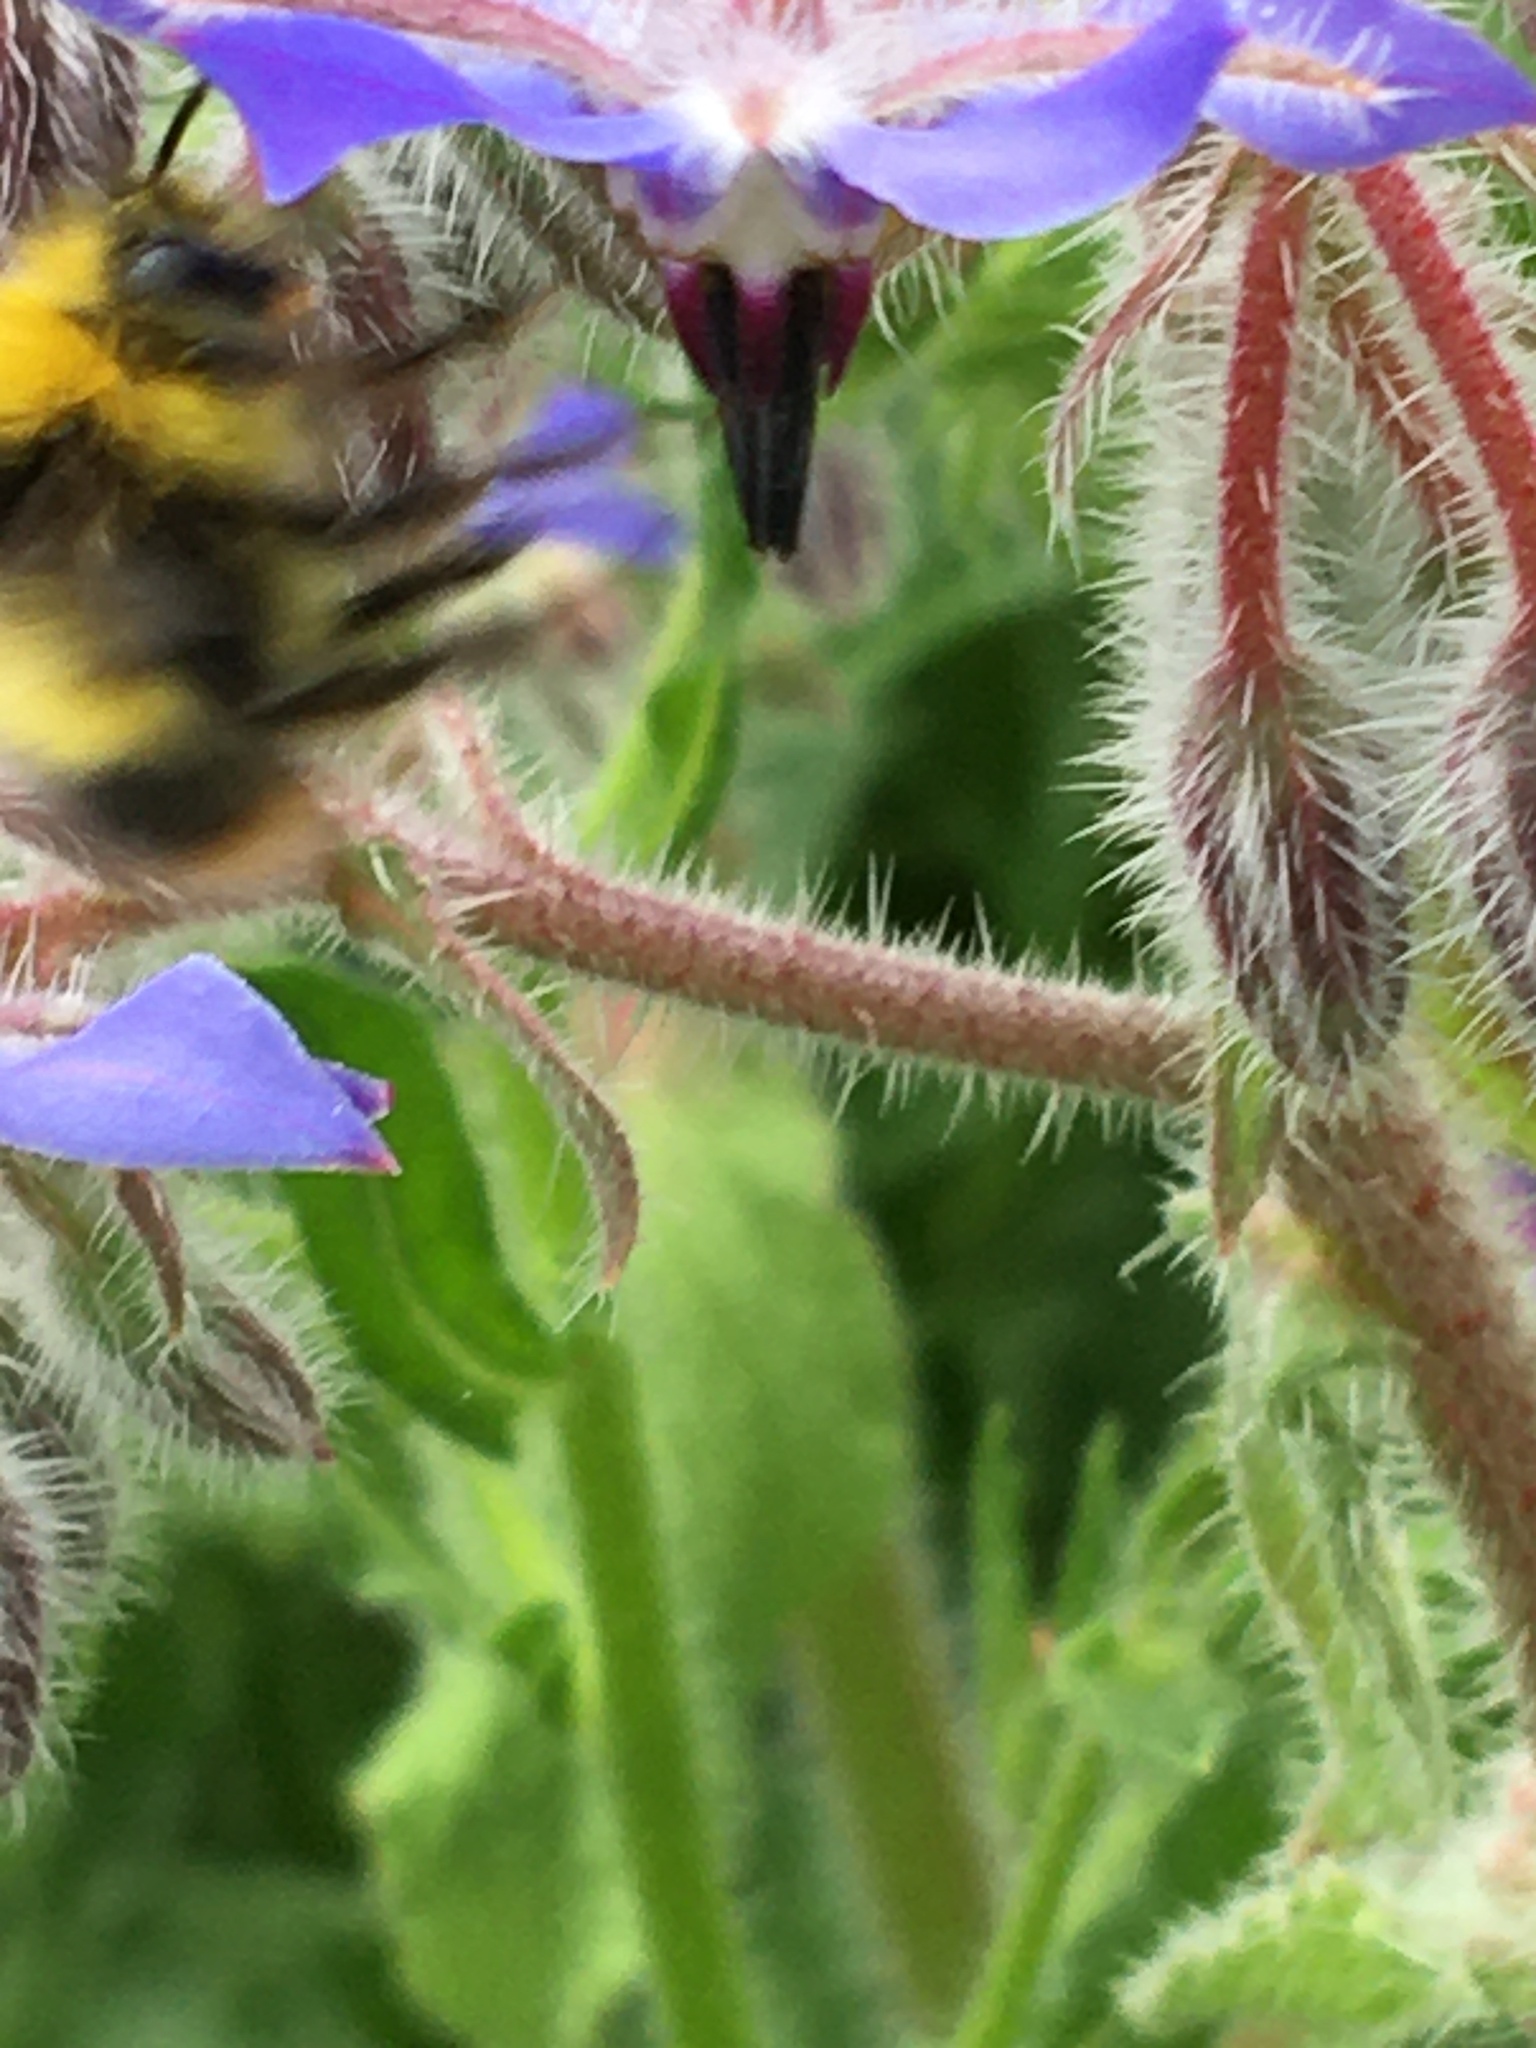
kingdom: Animalia
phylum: Arthropoda
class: Insecta
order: Hymenoptera
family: Apidae
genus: Bombus
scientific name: Bombus pratorum
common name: Early humble-bee
